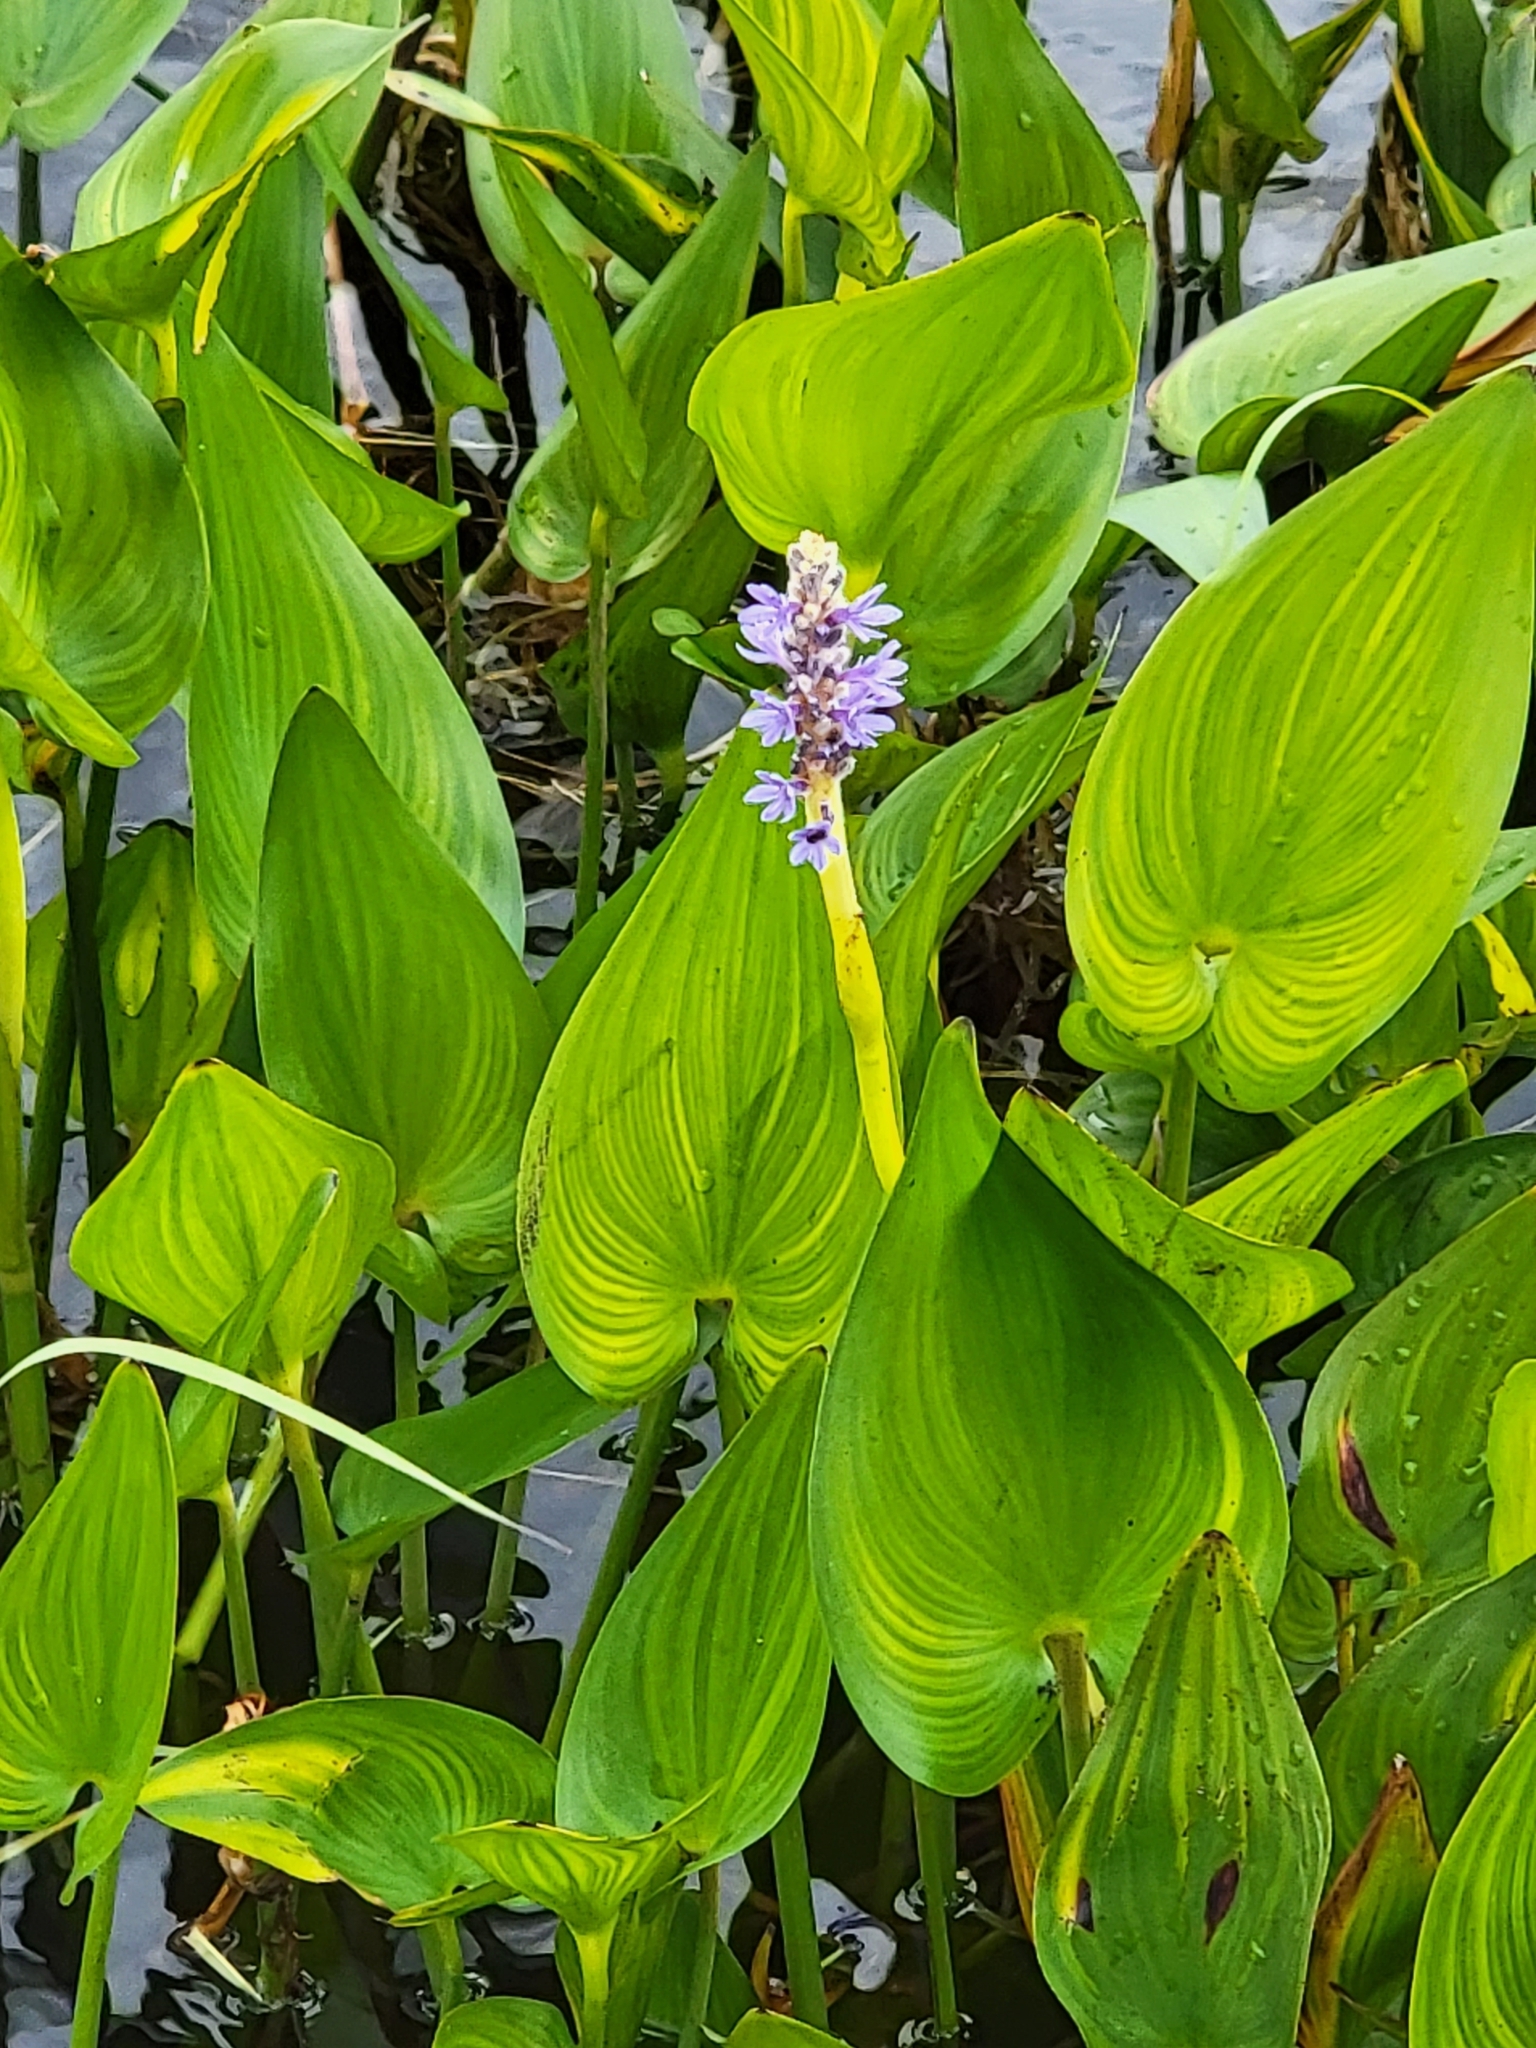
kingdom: Plantae
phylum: Tracheophyta
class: Liliopsida
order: Commelinales
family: Pontederiaceae
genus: Pontederia
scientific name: Pontederia cordata
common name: Pickerelweed
